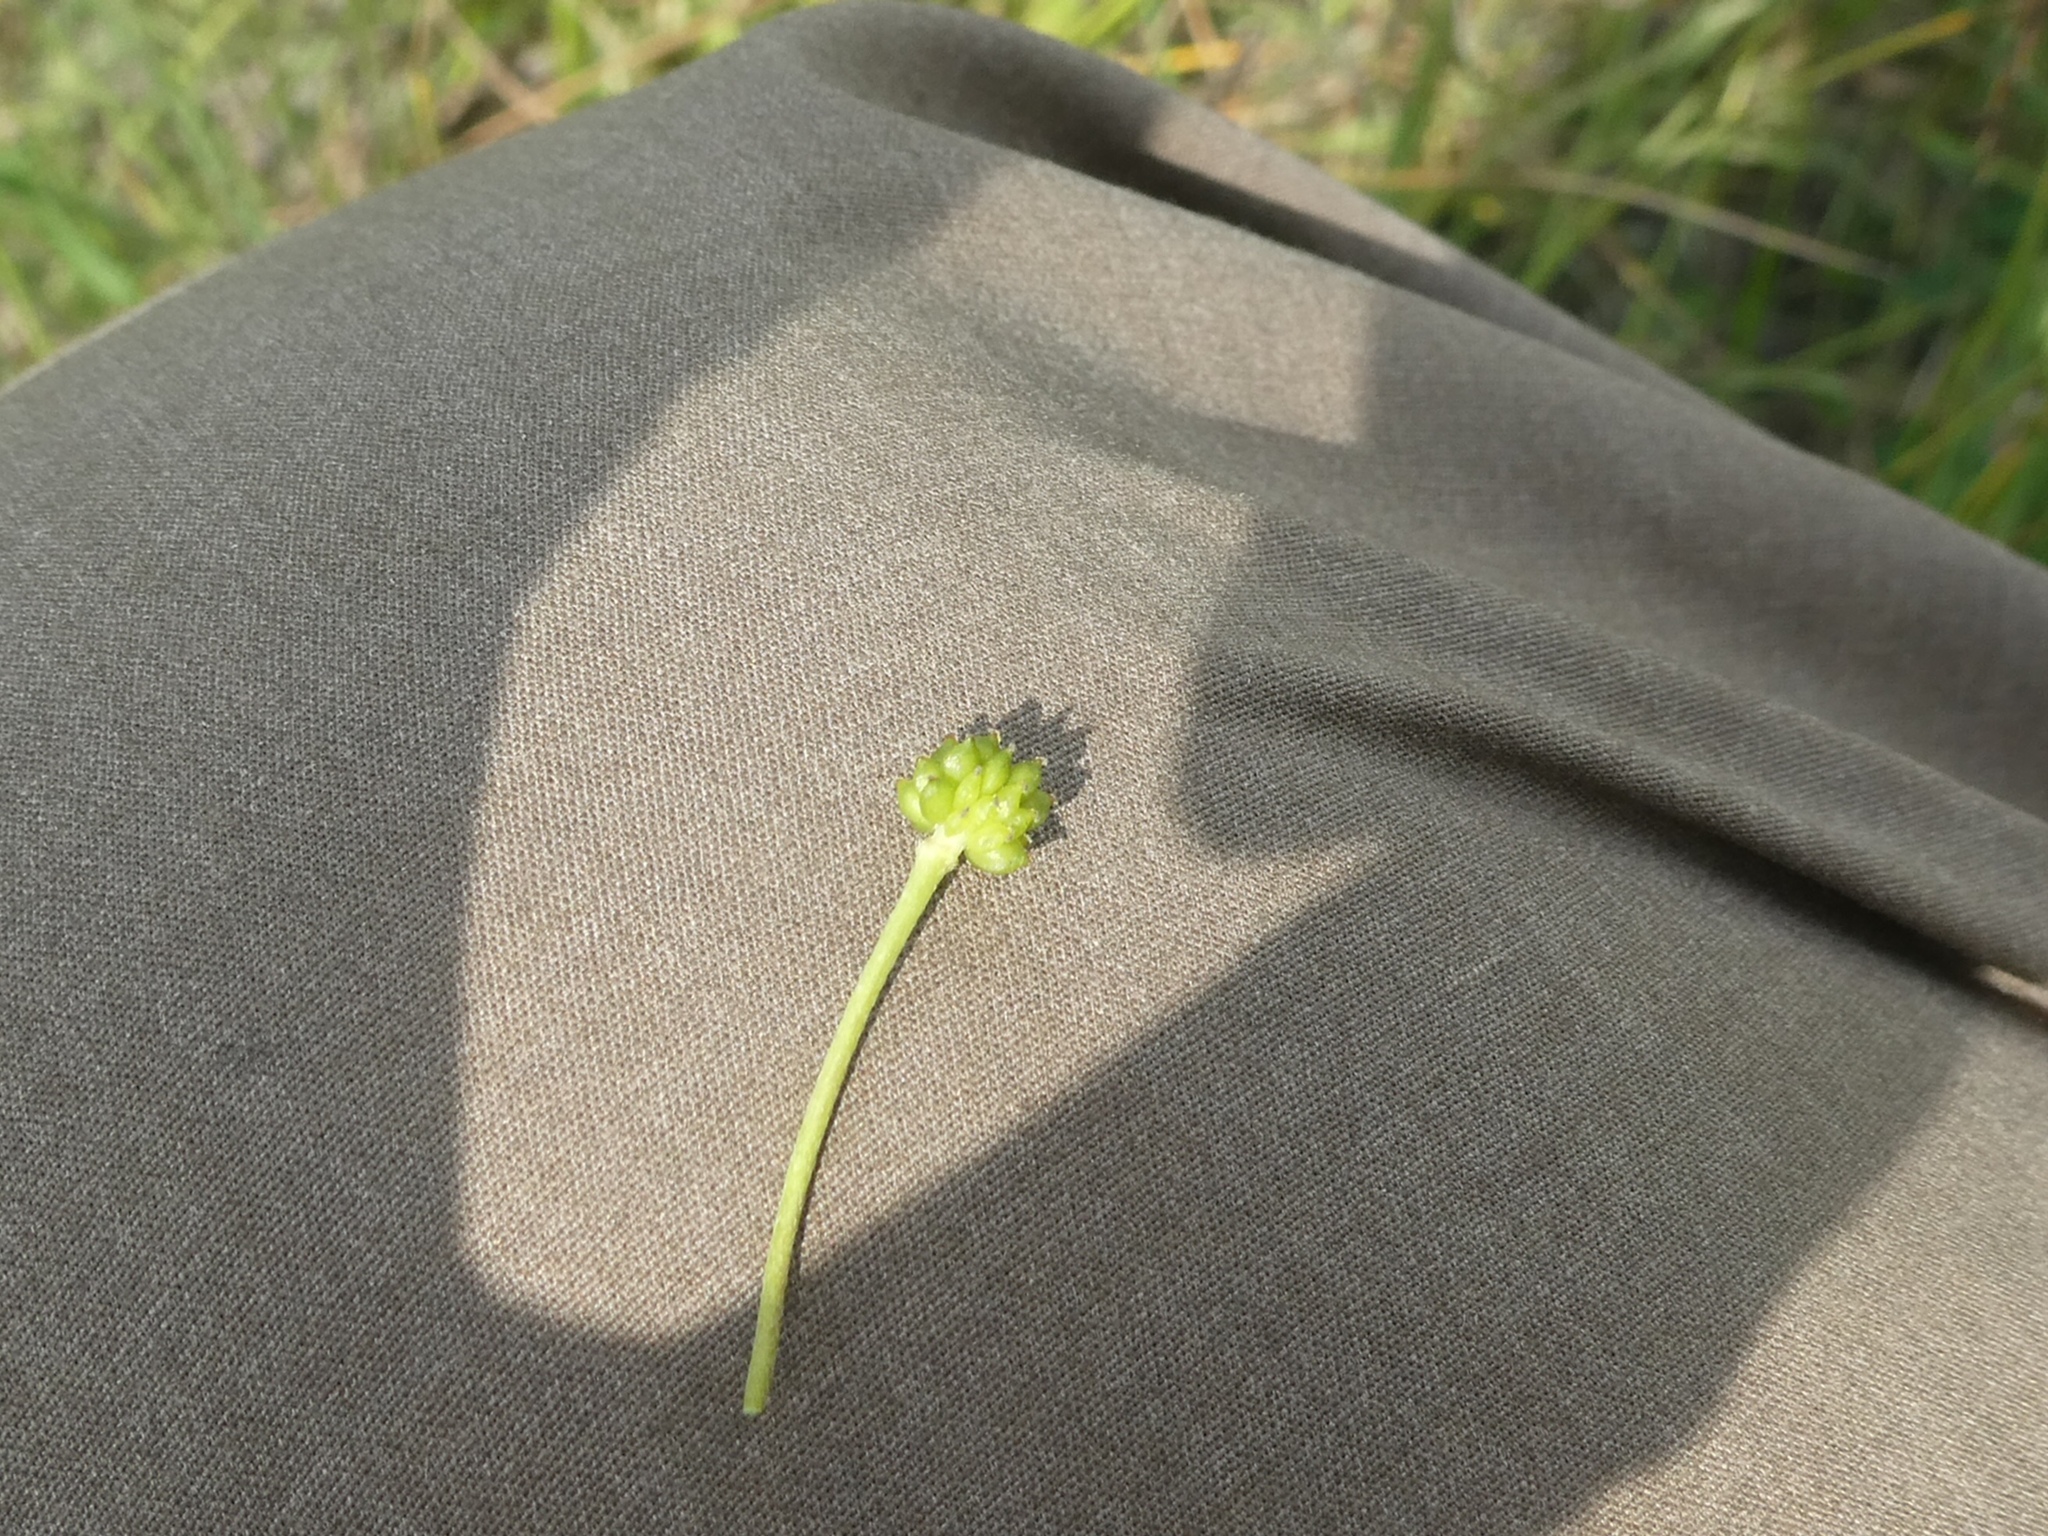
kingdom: Plantae
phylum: Tracheophyta
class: Magnoliopsida
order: Ranunculales
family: Ranunculaceae
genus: Ranunculus
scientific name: Ranunculus flammula
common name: Lesser spearwort
